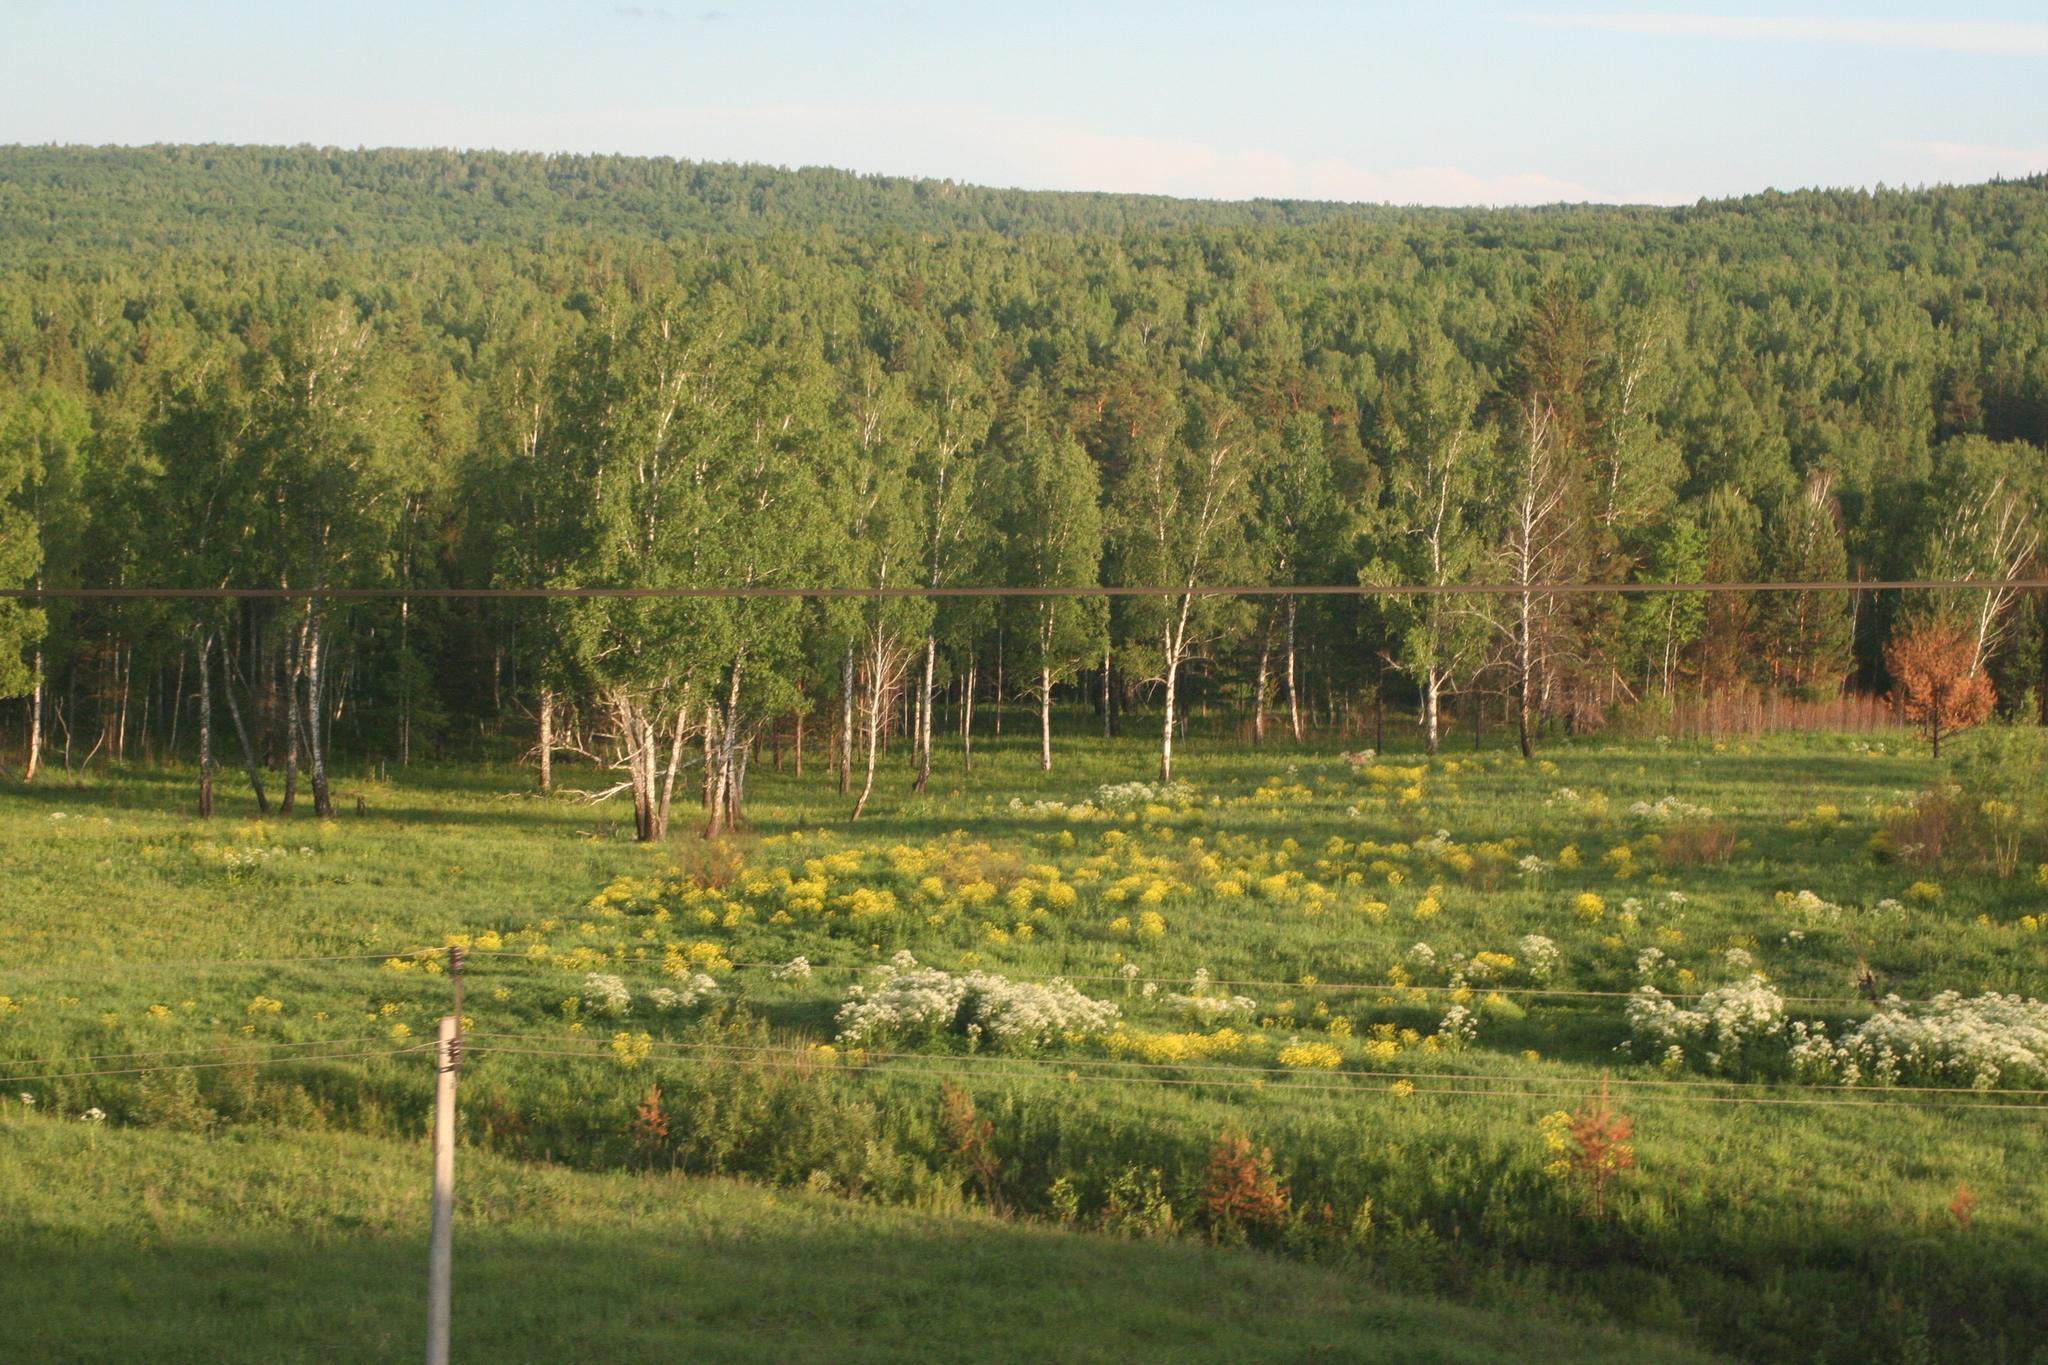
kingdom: Plantae
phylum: Tracheophyta
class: Magnoliopsida
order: Fagales
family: Betulaceae
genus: Betula
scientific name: Betula pendula
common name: Silver birch
